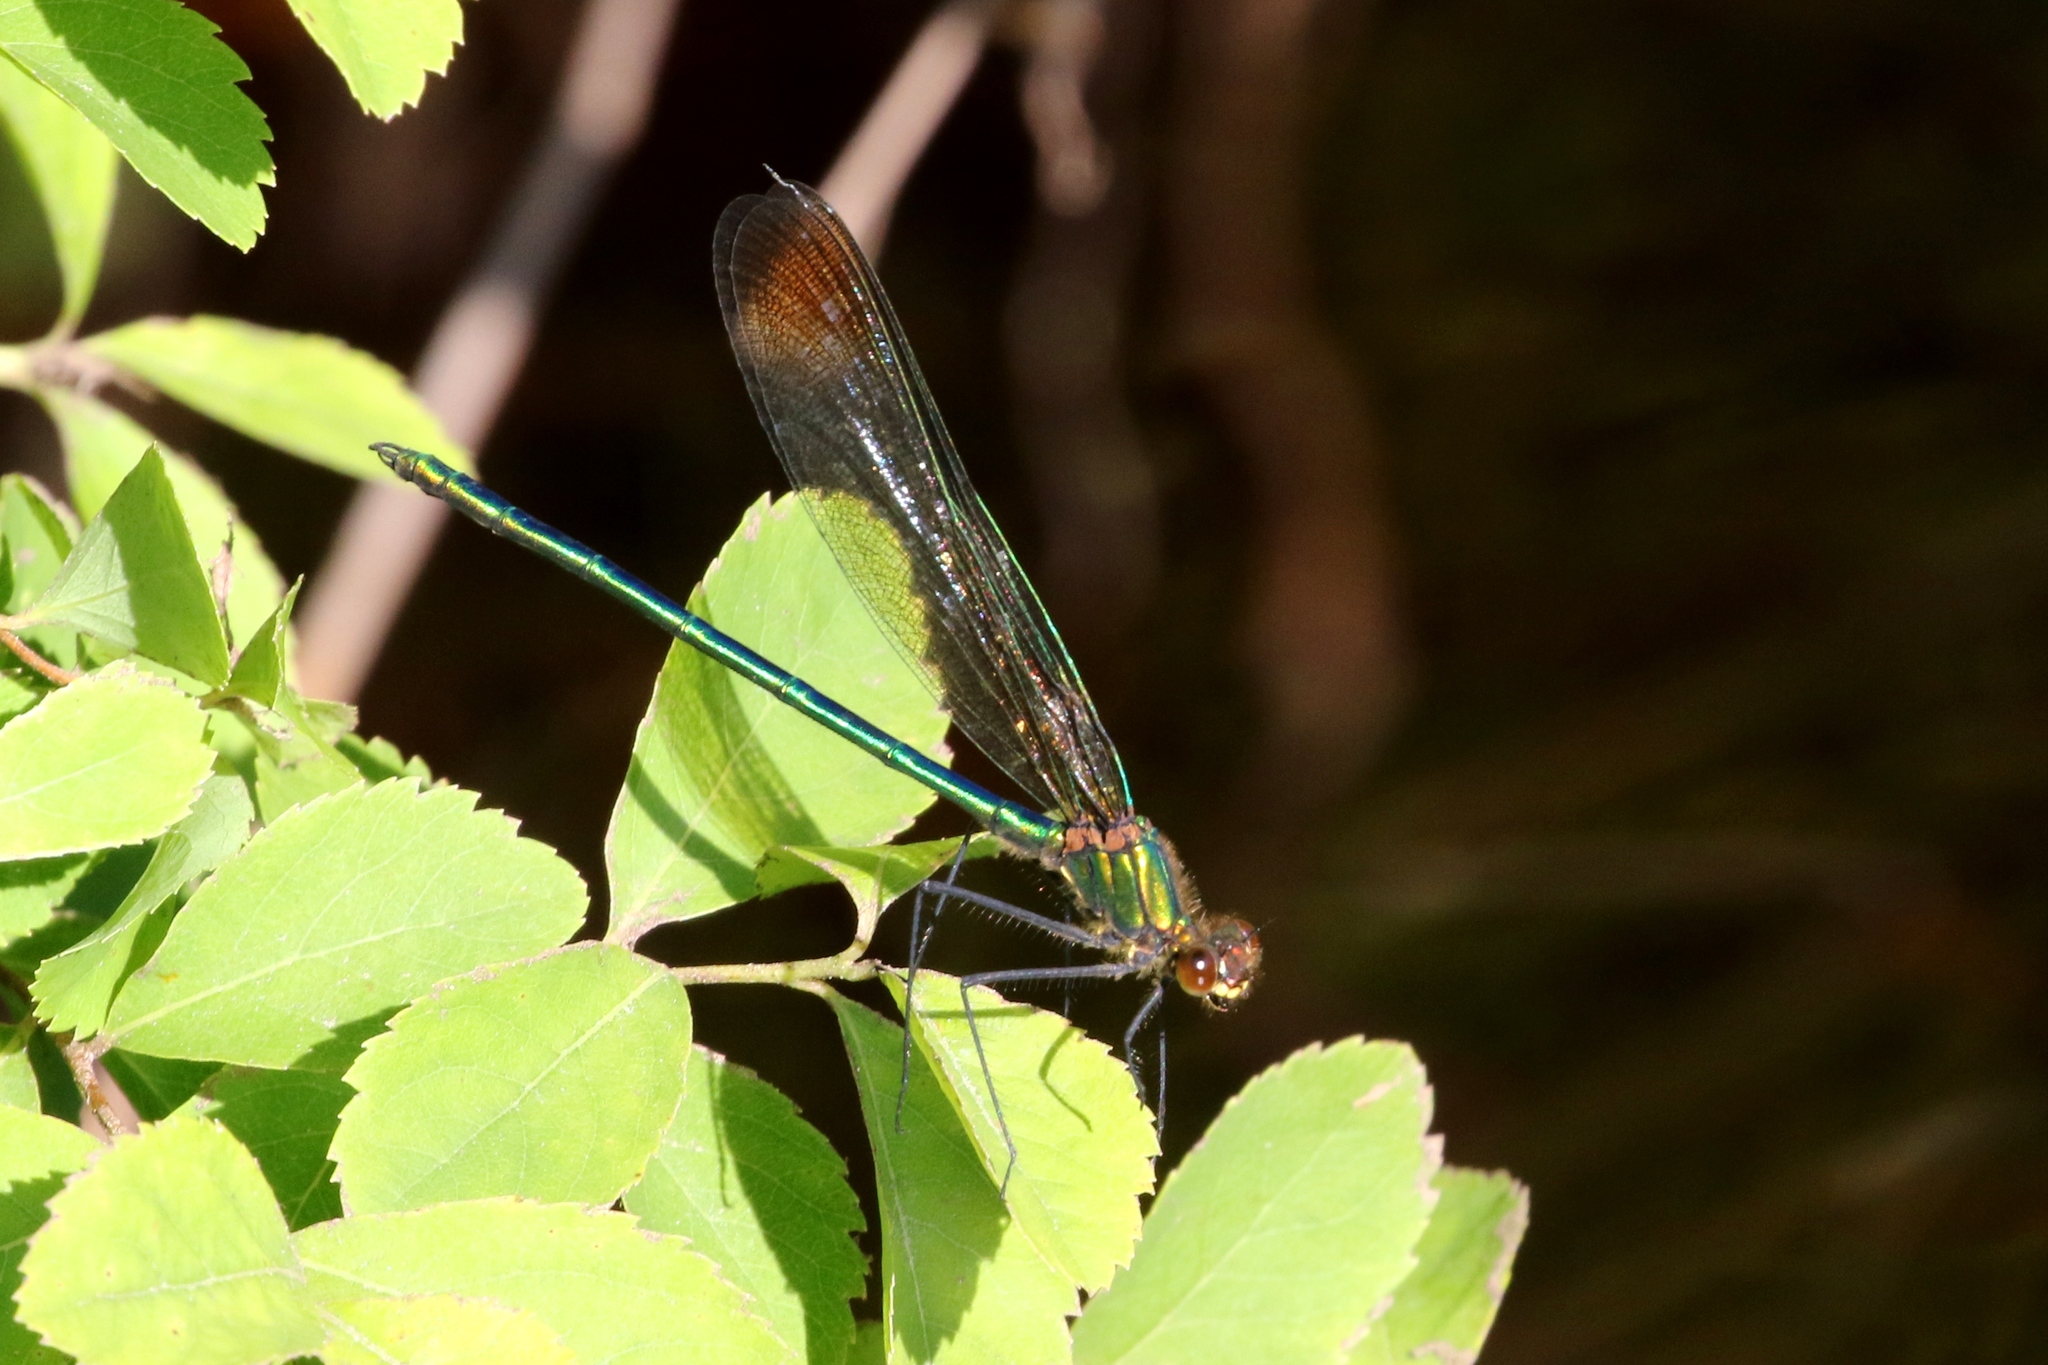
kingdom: Animalia
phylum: Arthropoda
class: Insecta
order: Odonata
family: Calopterygidae
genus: Calopteryx
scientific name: Calopteryx amata
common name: Superb jewelwing
